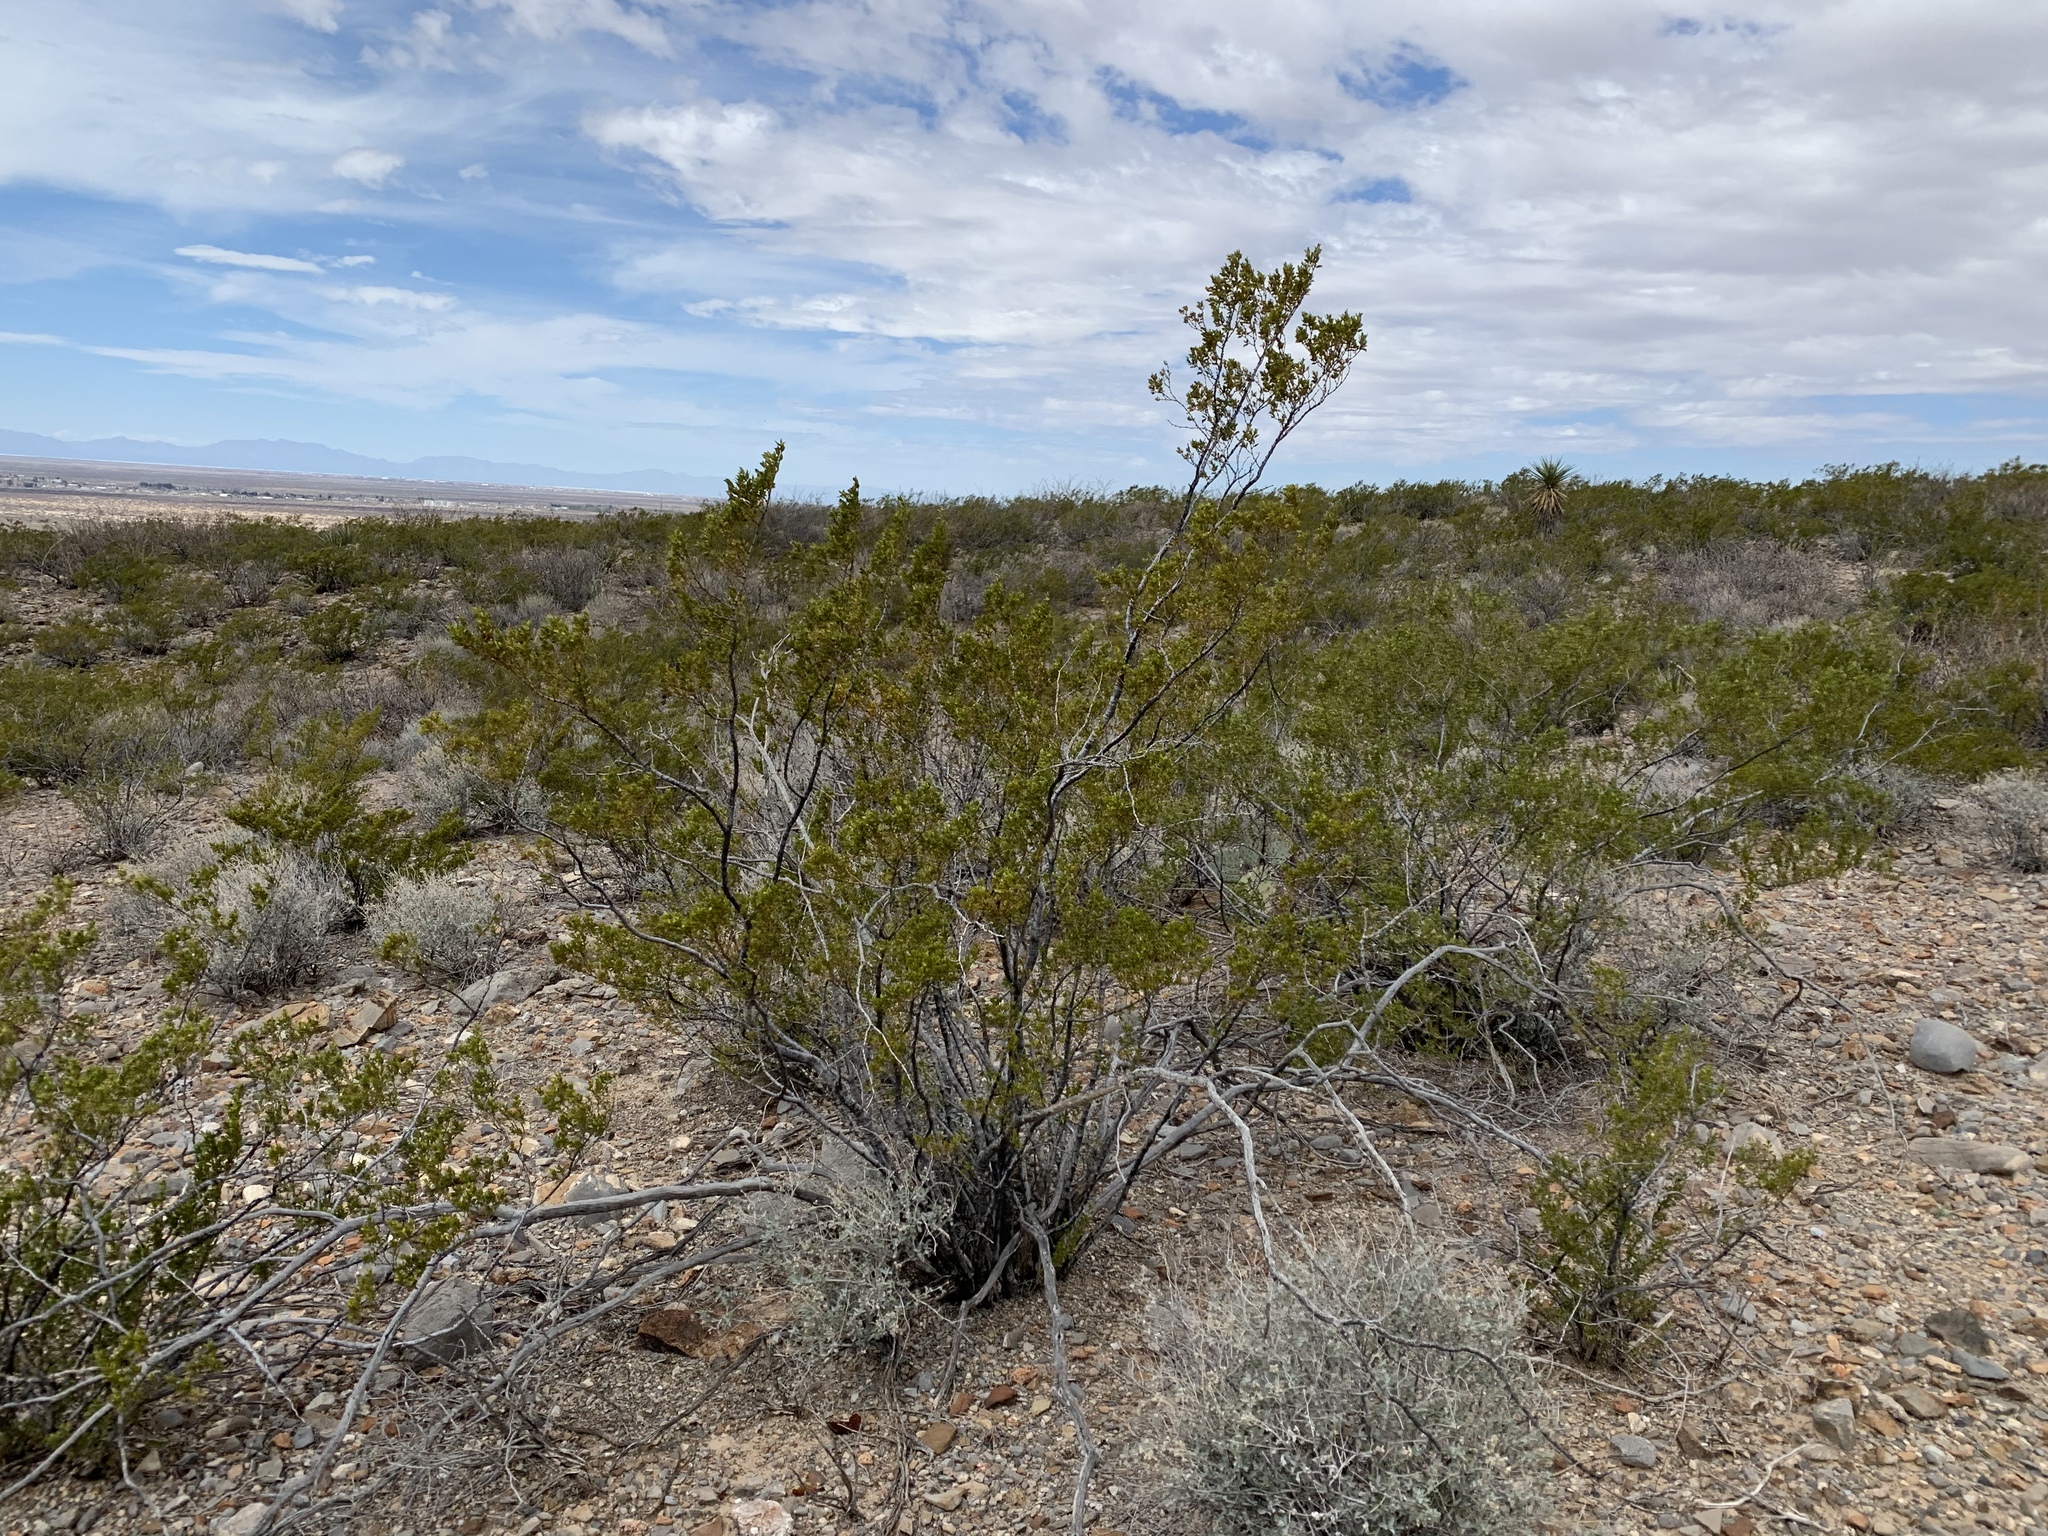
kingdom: Plantae
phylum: Tracheophyta
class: Magnoliopsida
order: Zygophyllales
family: Zygophyllaceae
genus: Larrea
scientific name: Larrea tridentata
